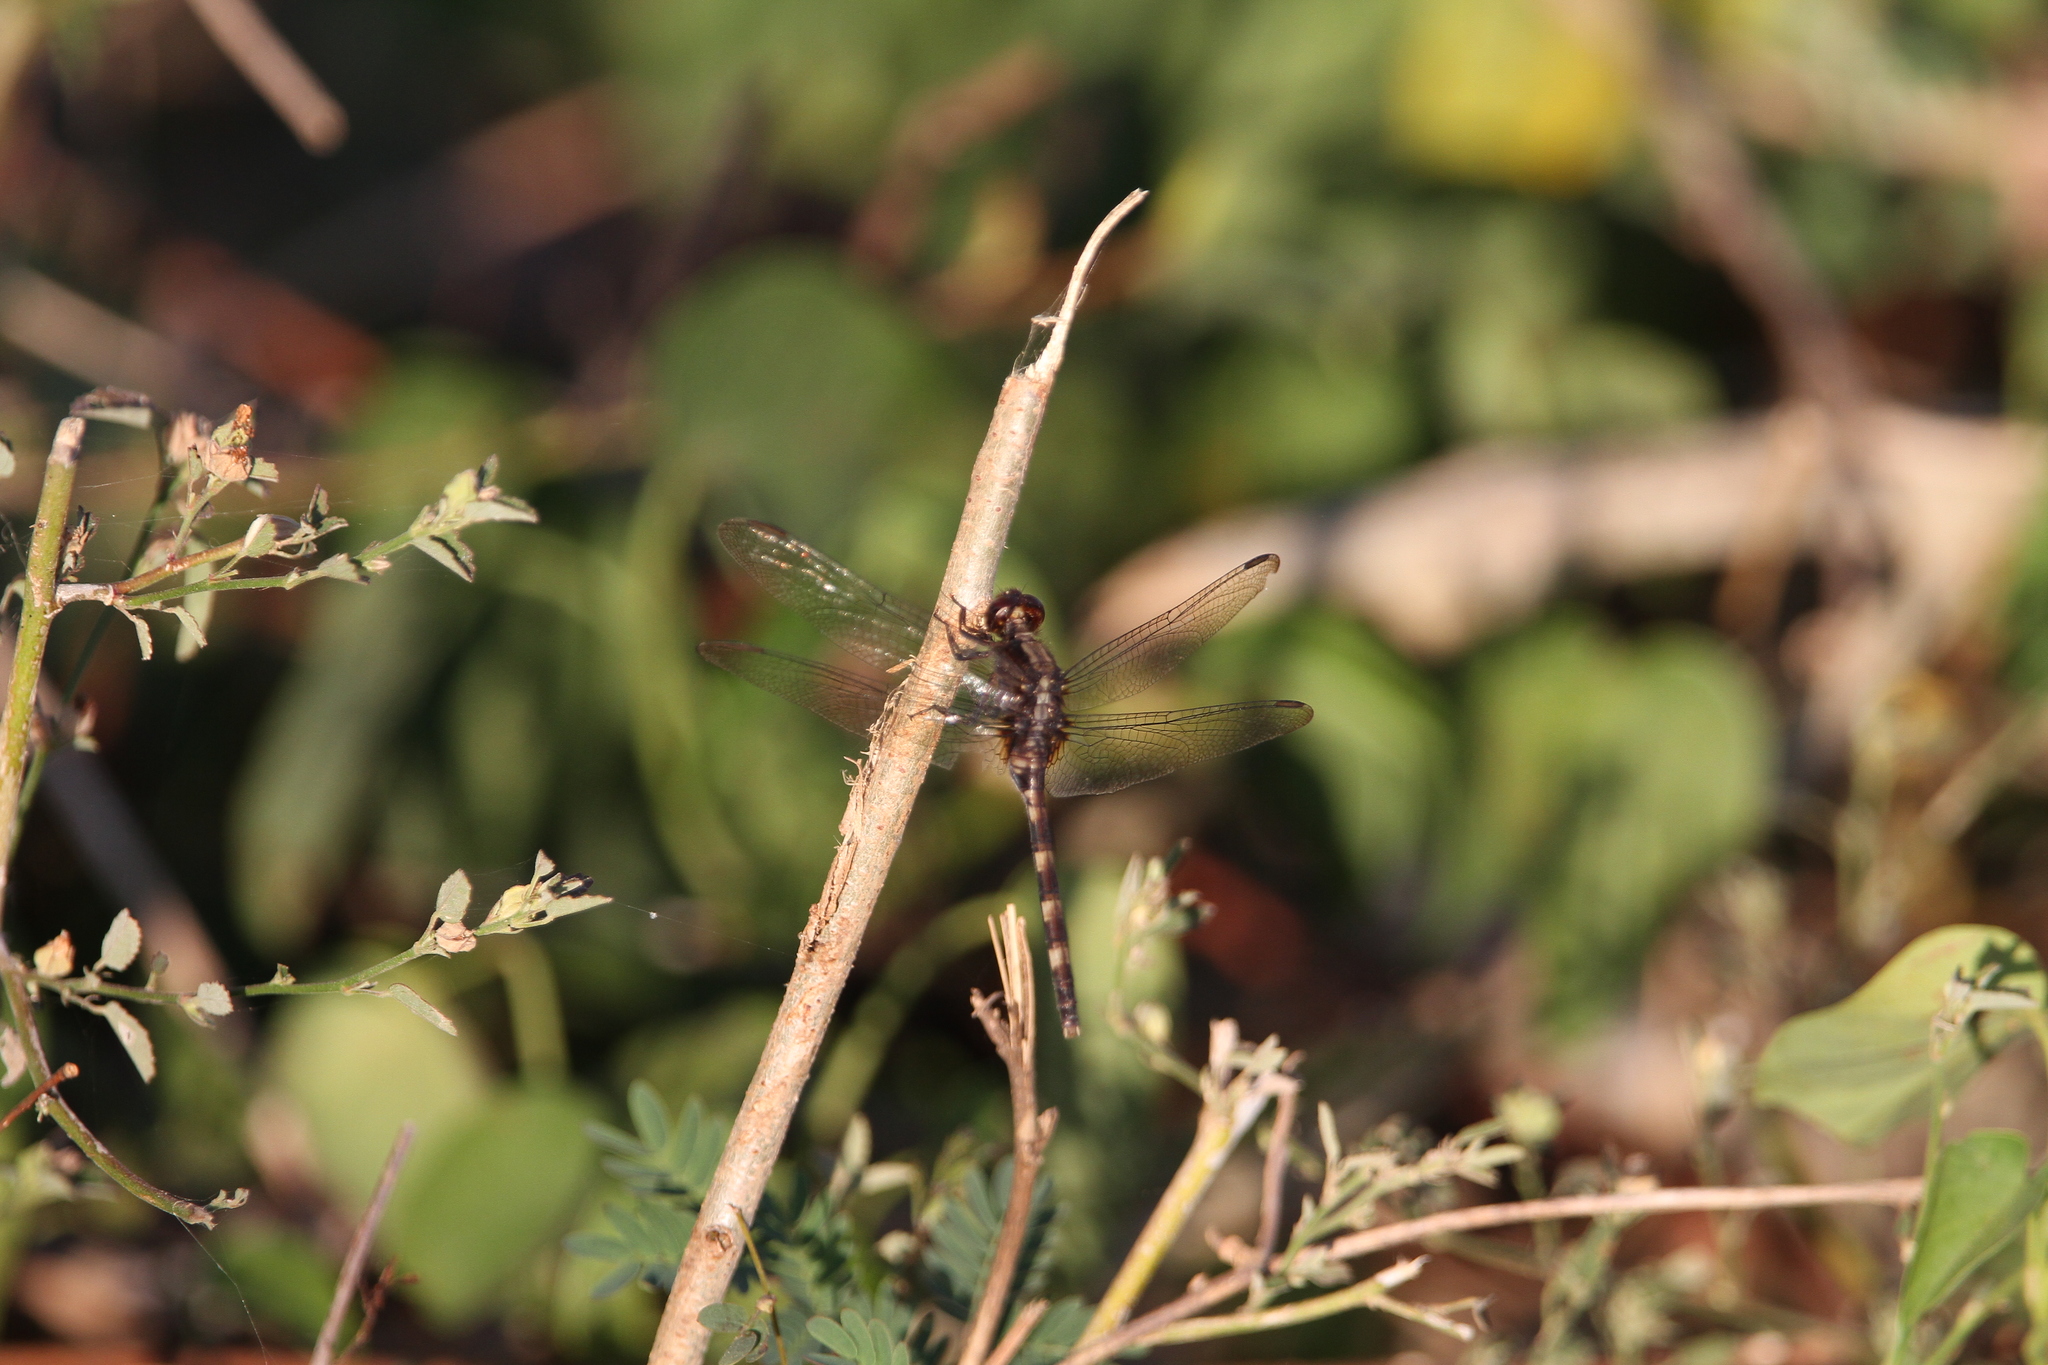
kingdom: Animalia
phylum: Arthropoda
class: Insecta
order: Odonata
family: Libellulidae
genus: Erythemis
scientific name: Erythemis plebeja
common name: Pin-tailed pondhawk
